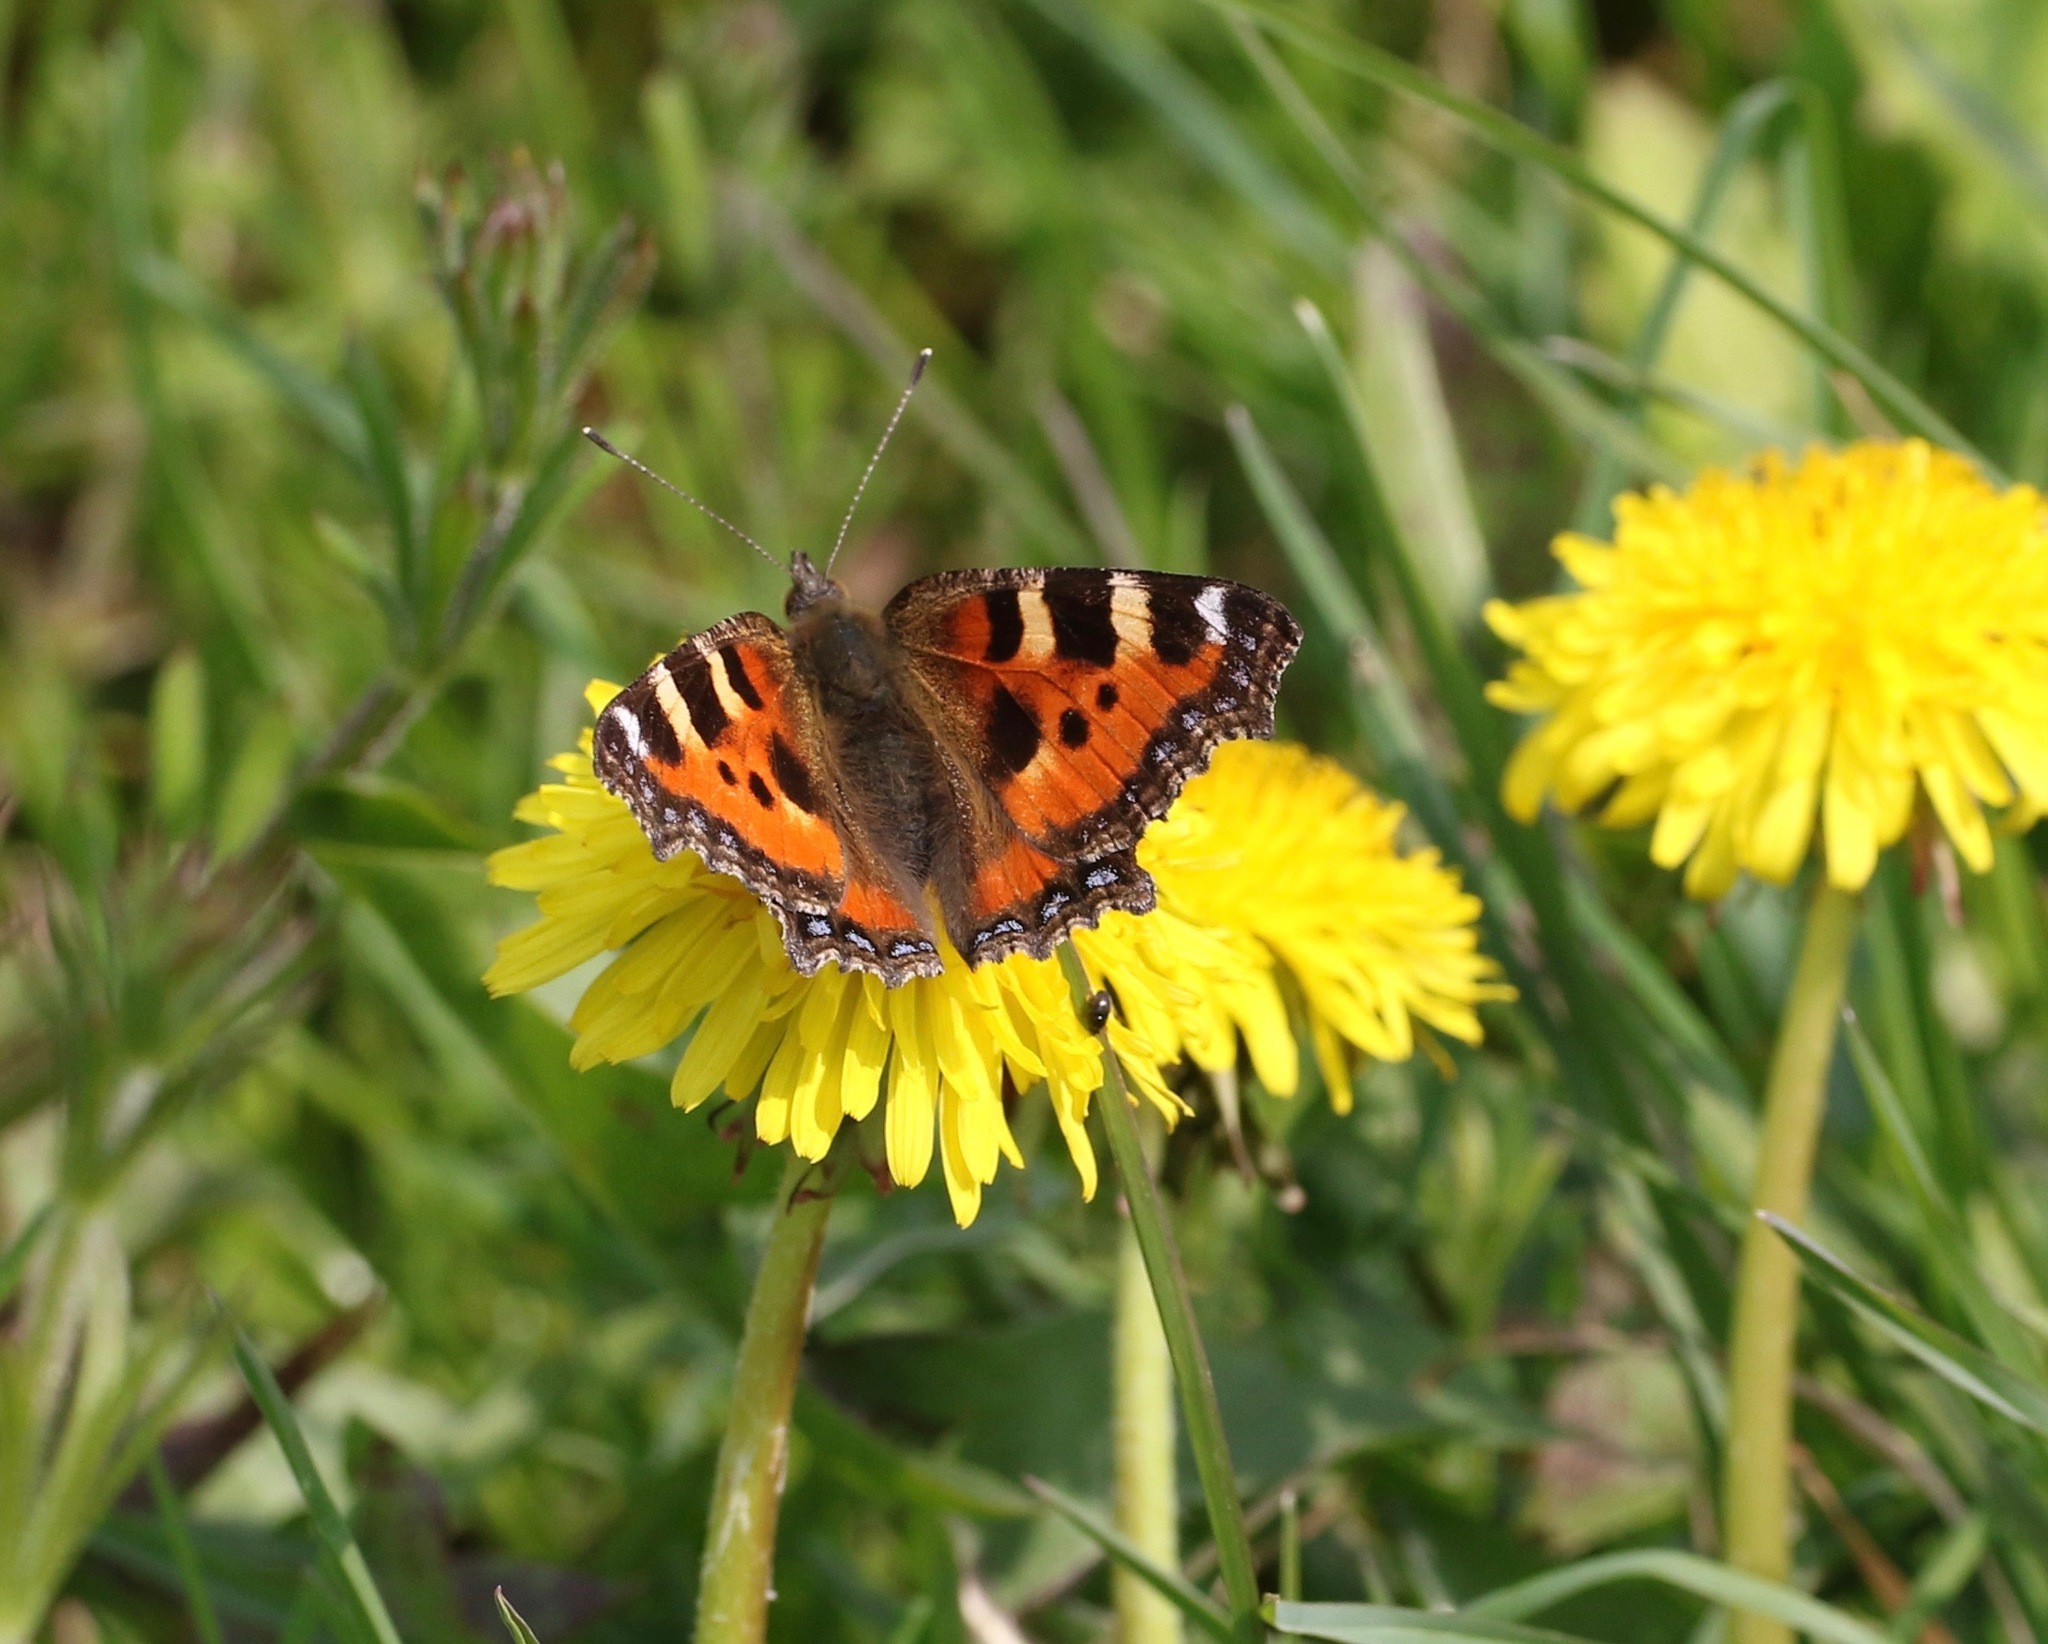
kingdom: Animalia
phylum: Arthropoda
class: Insecta
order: Lepidoptera
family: Nymphalidae
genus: Aglais
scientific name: Aglais urticae
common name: Small tortoiseshell
